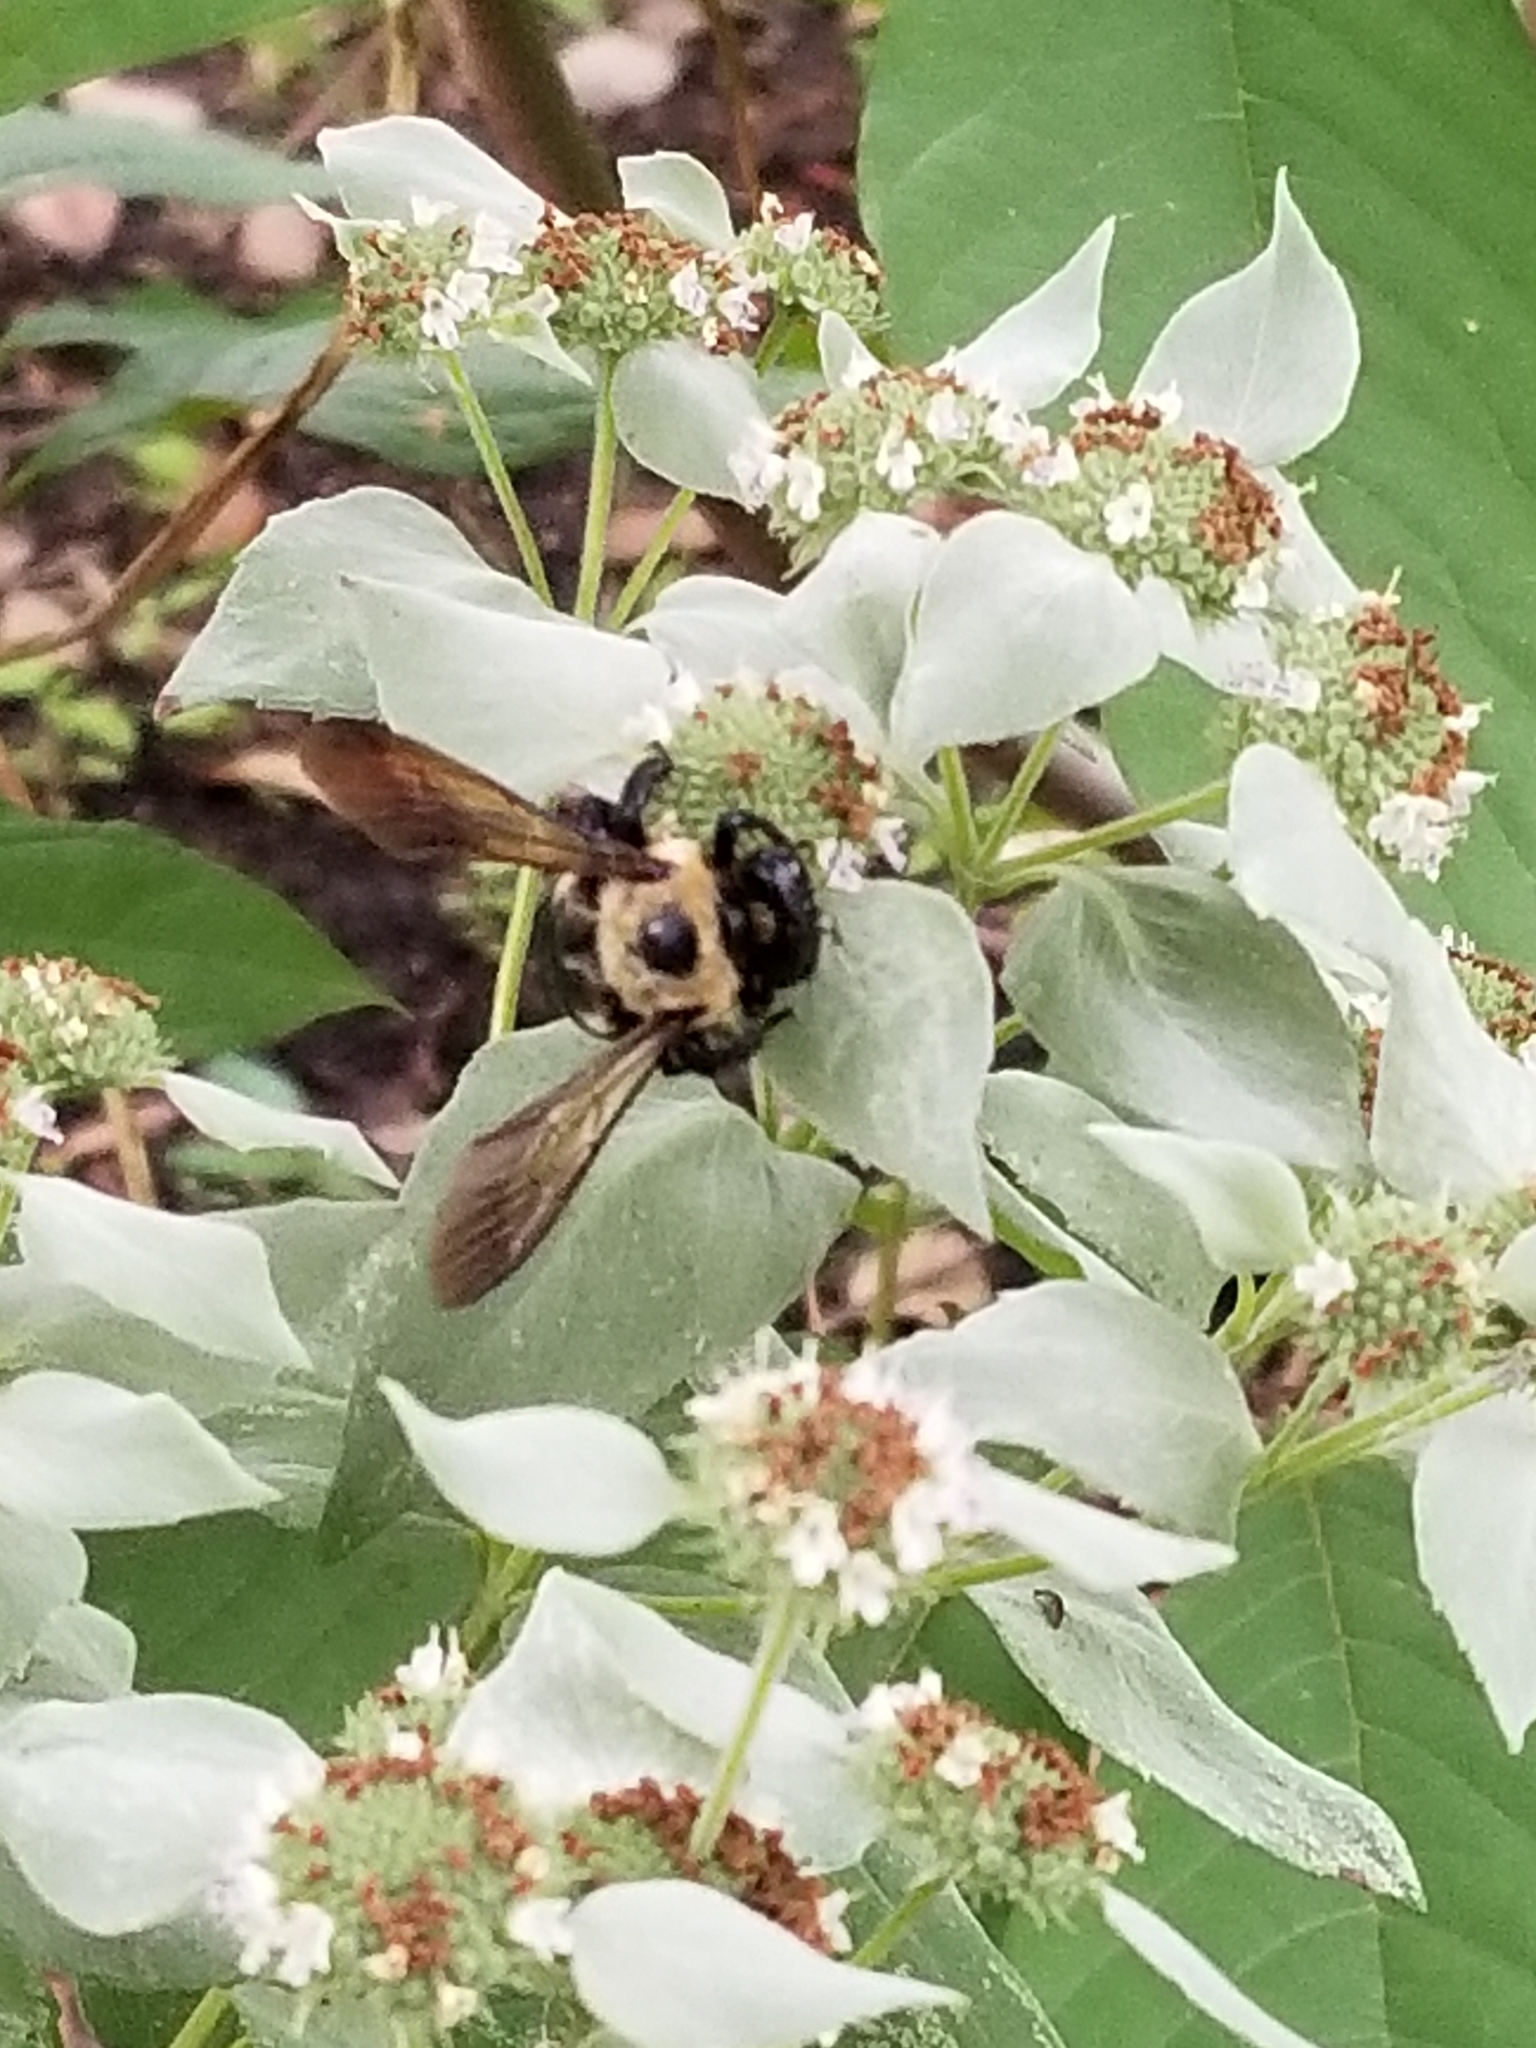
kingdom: Animalia
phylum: Arthropoda
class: Insecta
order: Hymenoptera
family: Apidae
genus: Xylocopa
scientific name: Xylocopa virginica
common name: Carpenter bee
